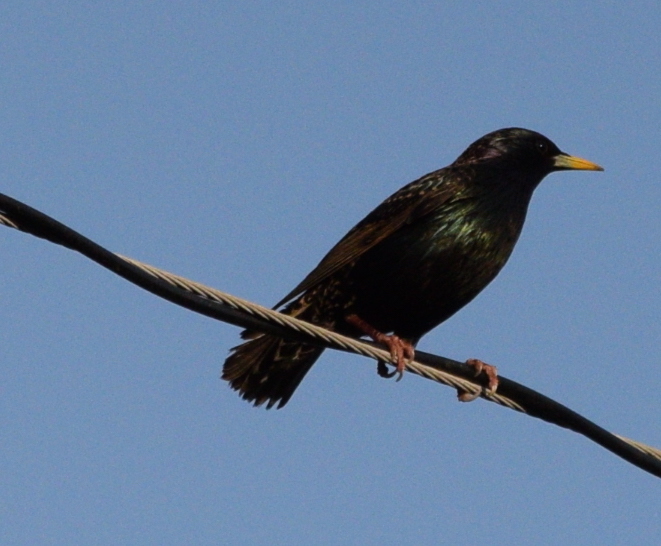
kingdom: Animalia
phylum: Chordata
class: Aves
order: Passeriformes
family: Sturnidae
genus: Sturnus
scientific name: Sturnus vulgaris
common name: Common starling
